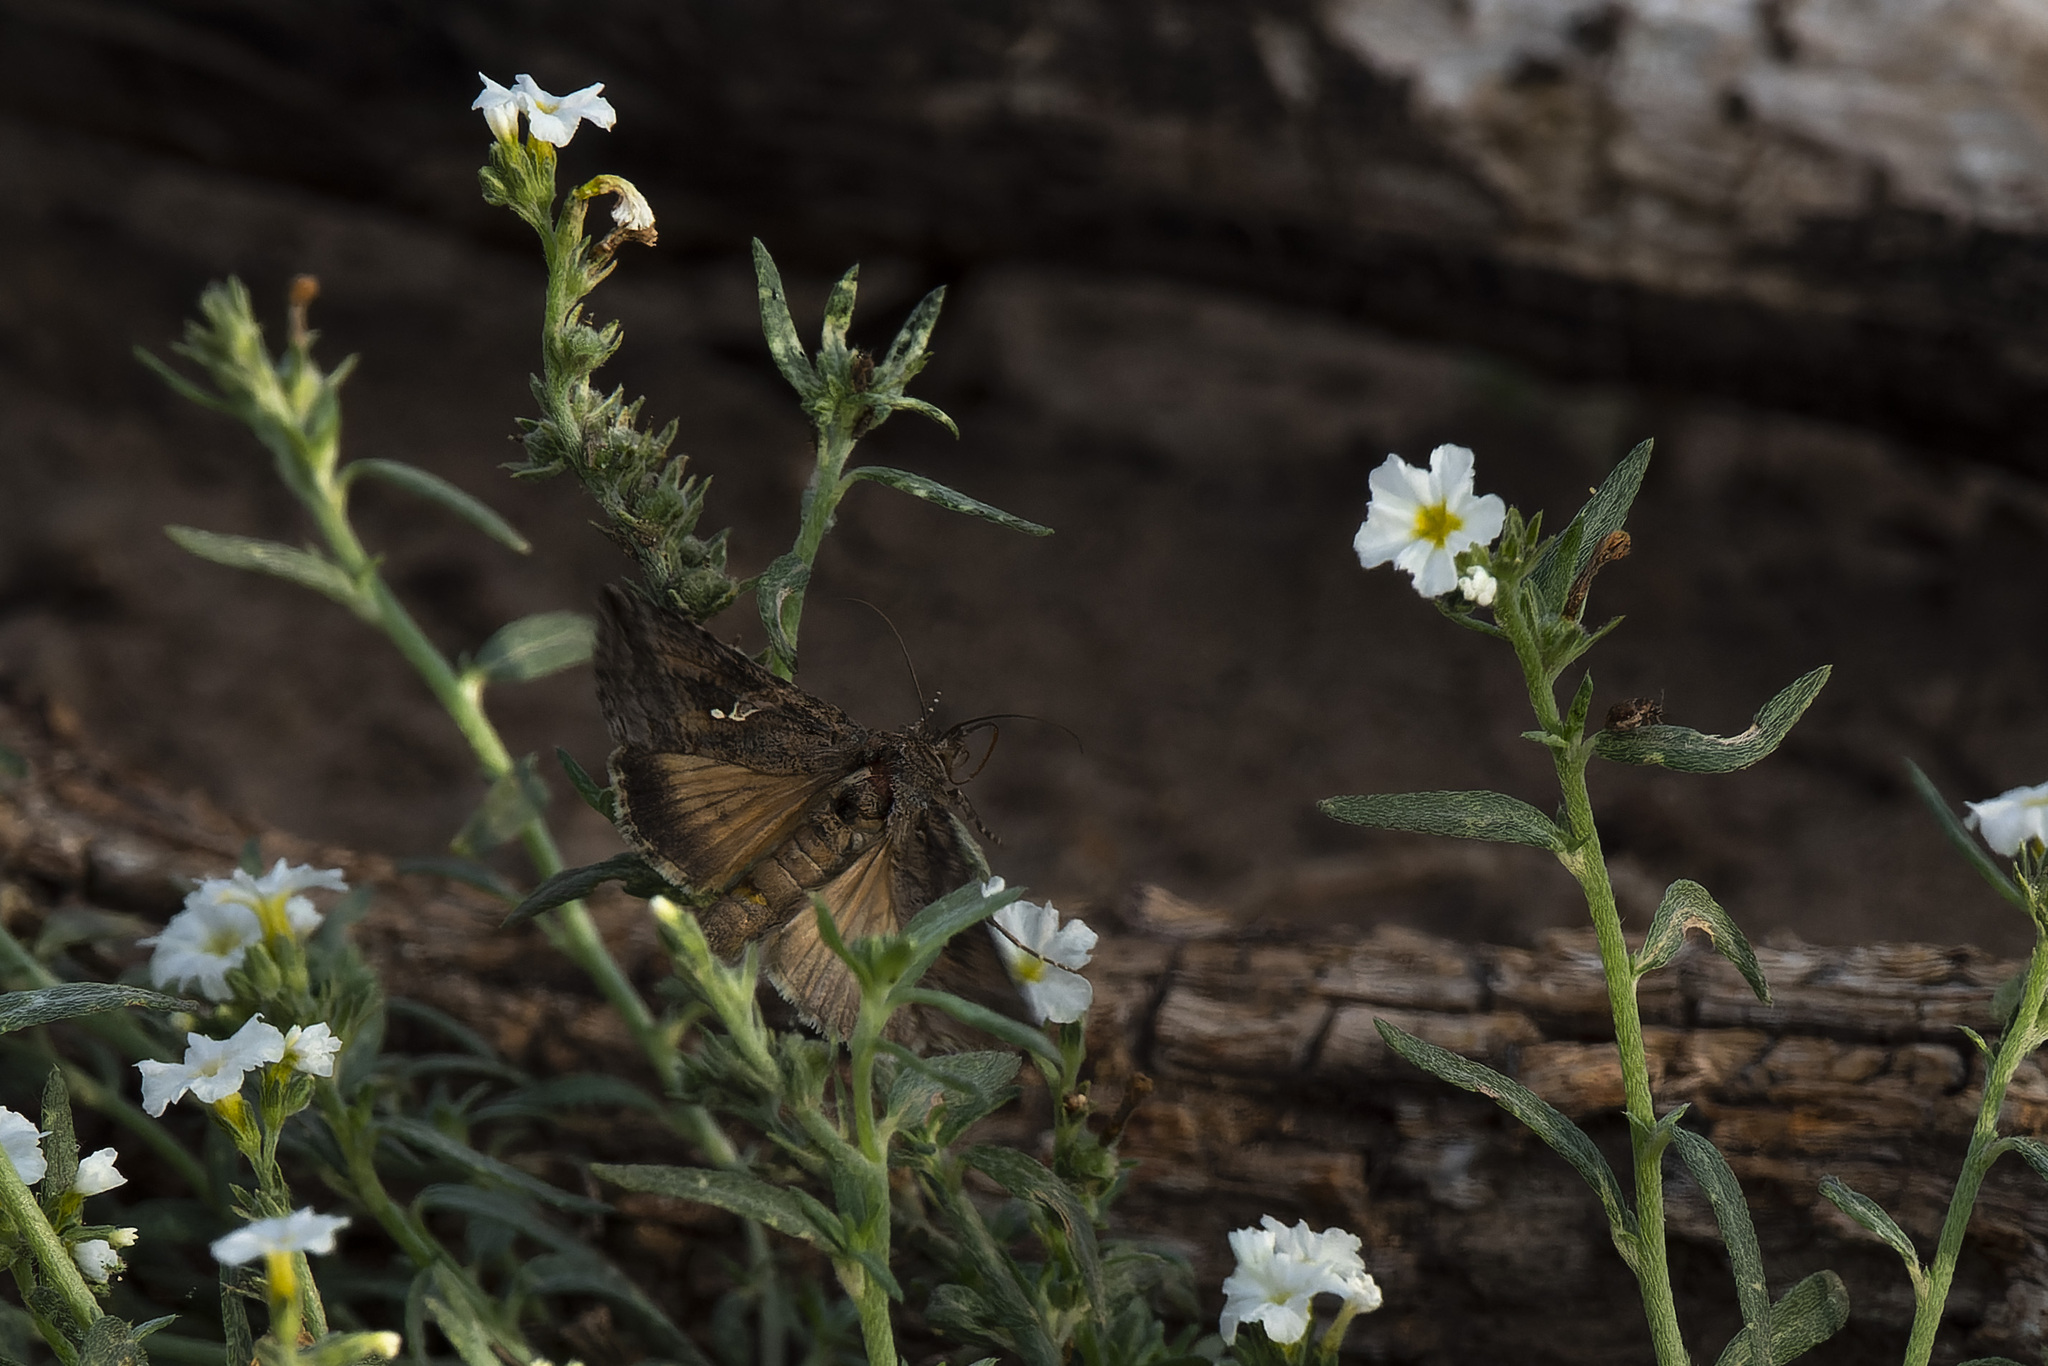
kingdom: Animalia
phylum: Arthropoda
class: Insecta
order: Lepidoptera
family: Noctuidae
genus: Rachiplusia
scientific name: Rachiplusia nu
